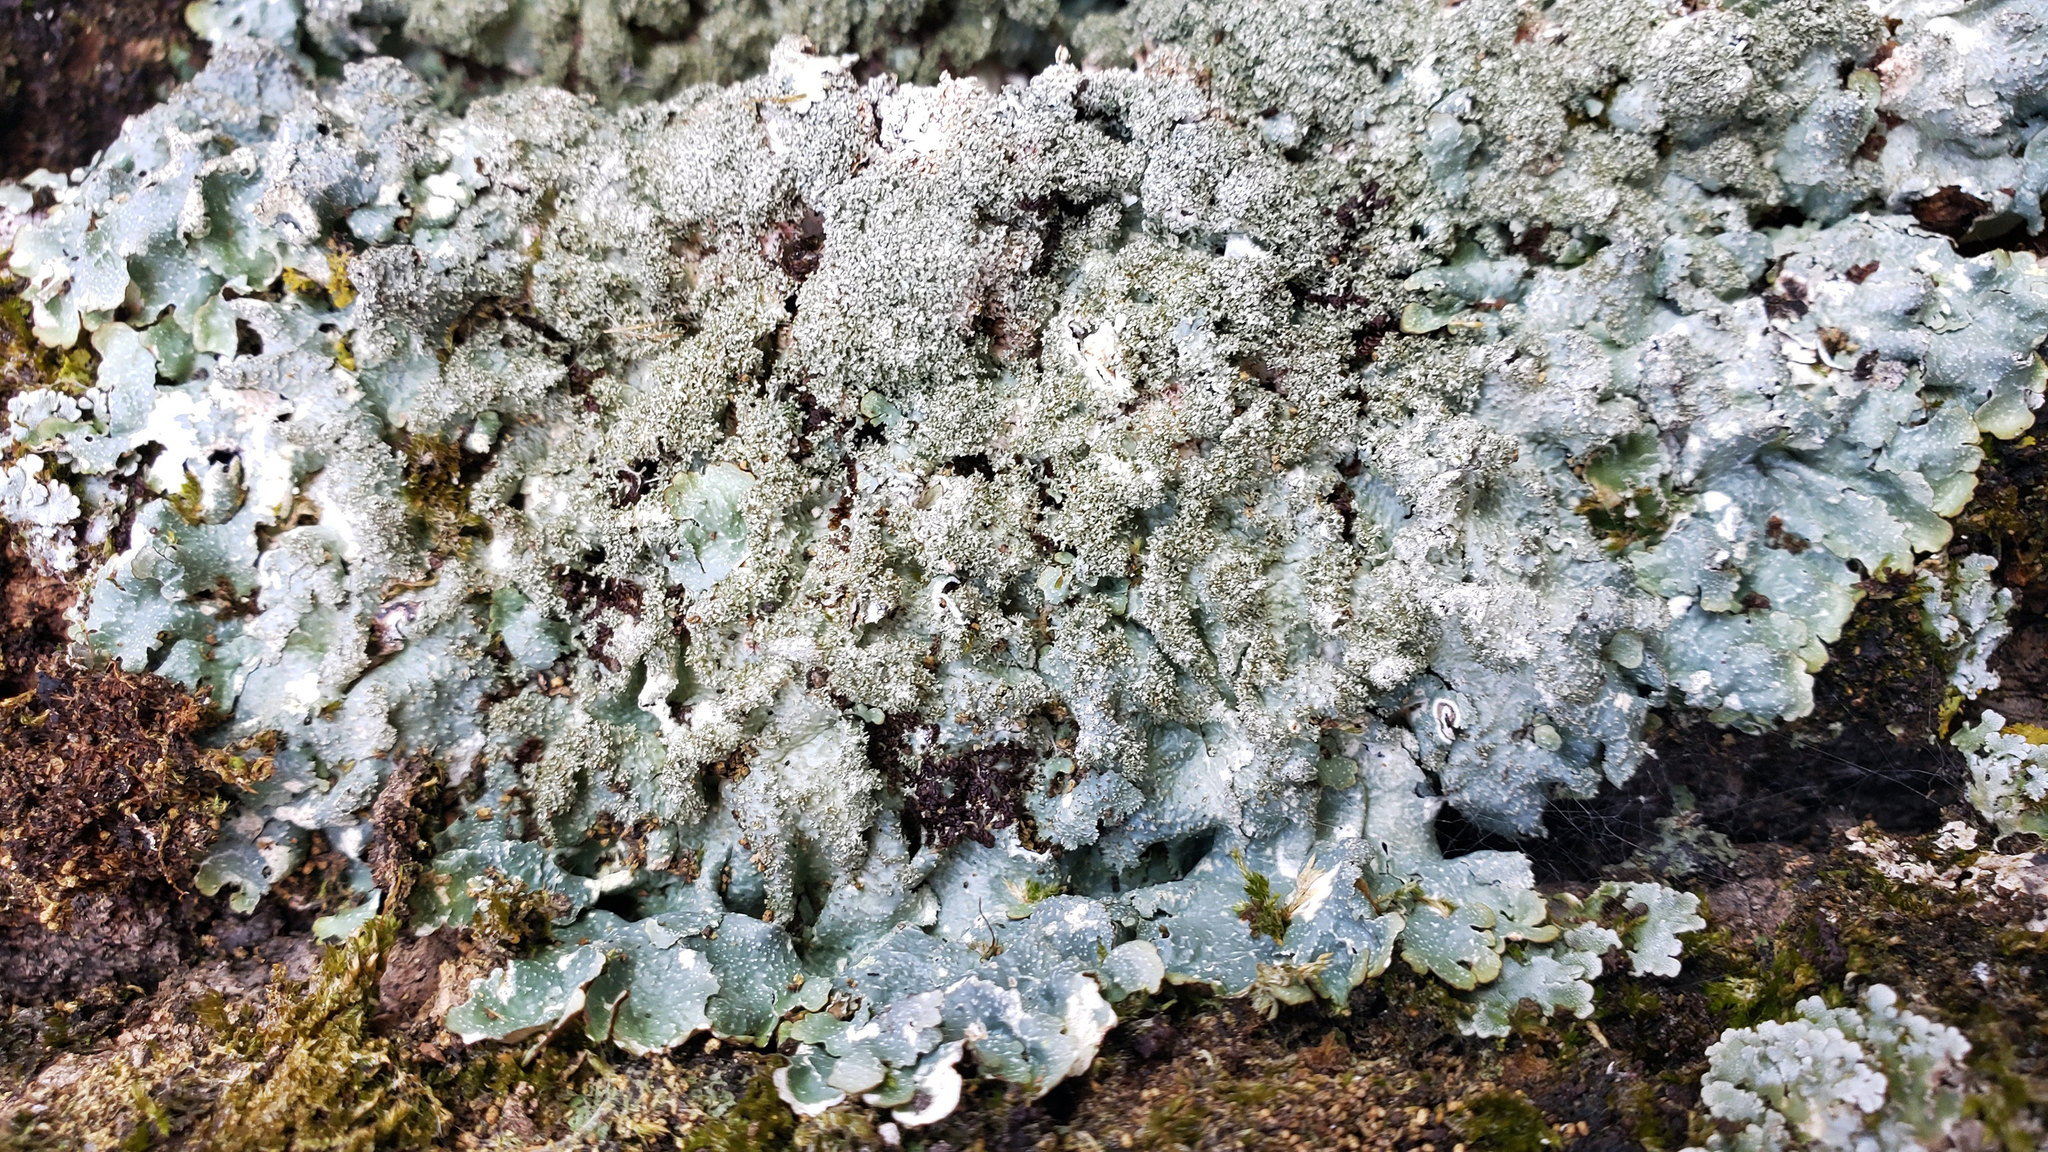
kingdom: Fungi
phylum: Ascomycota
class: Lecanoromycetes
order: Lecanorales
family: Parmeliaceae
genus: Punctelia
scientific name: Punctelia rudecta
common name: Rough speckled shield lichen
